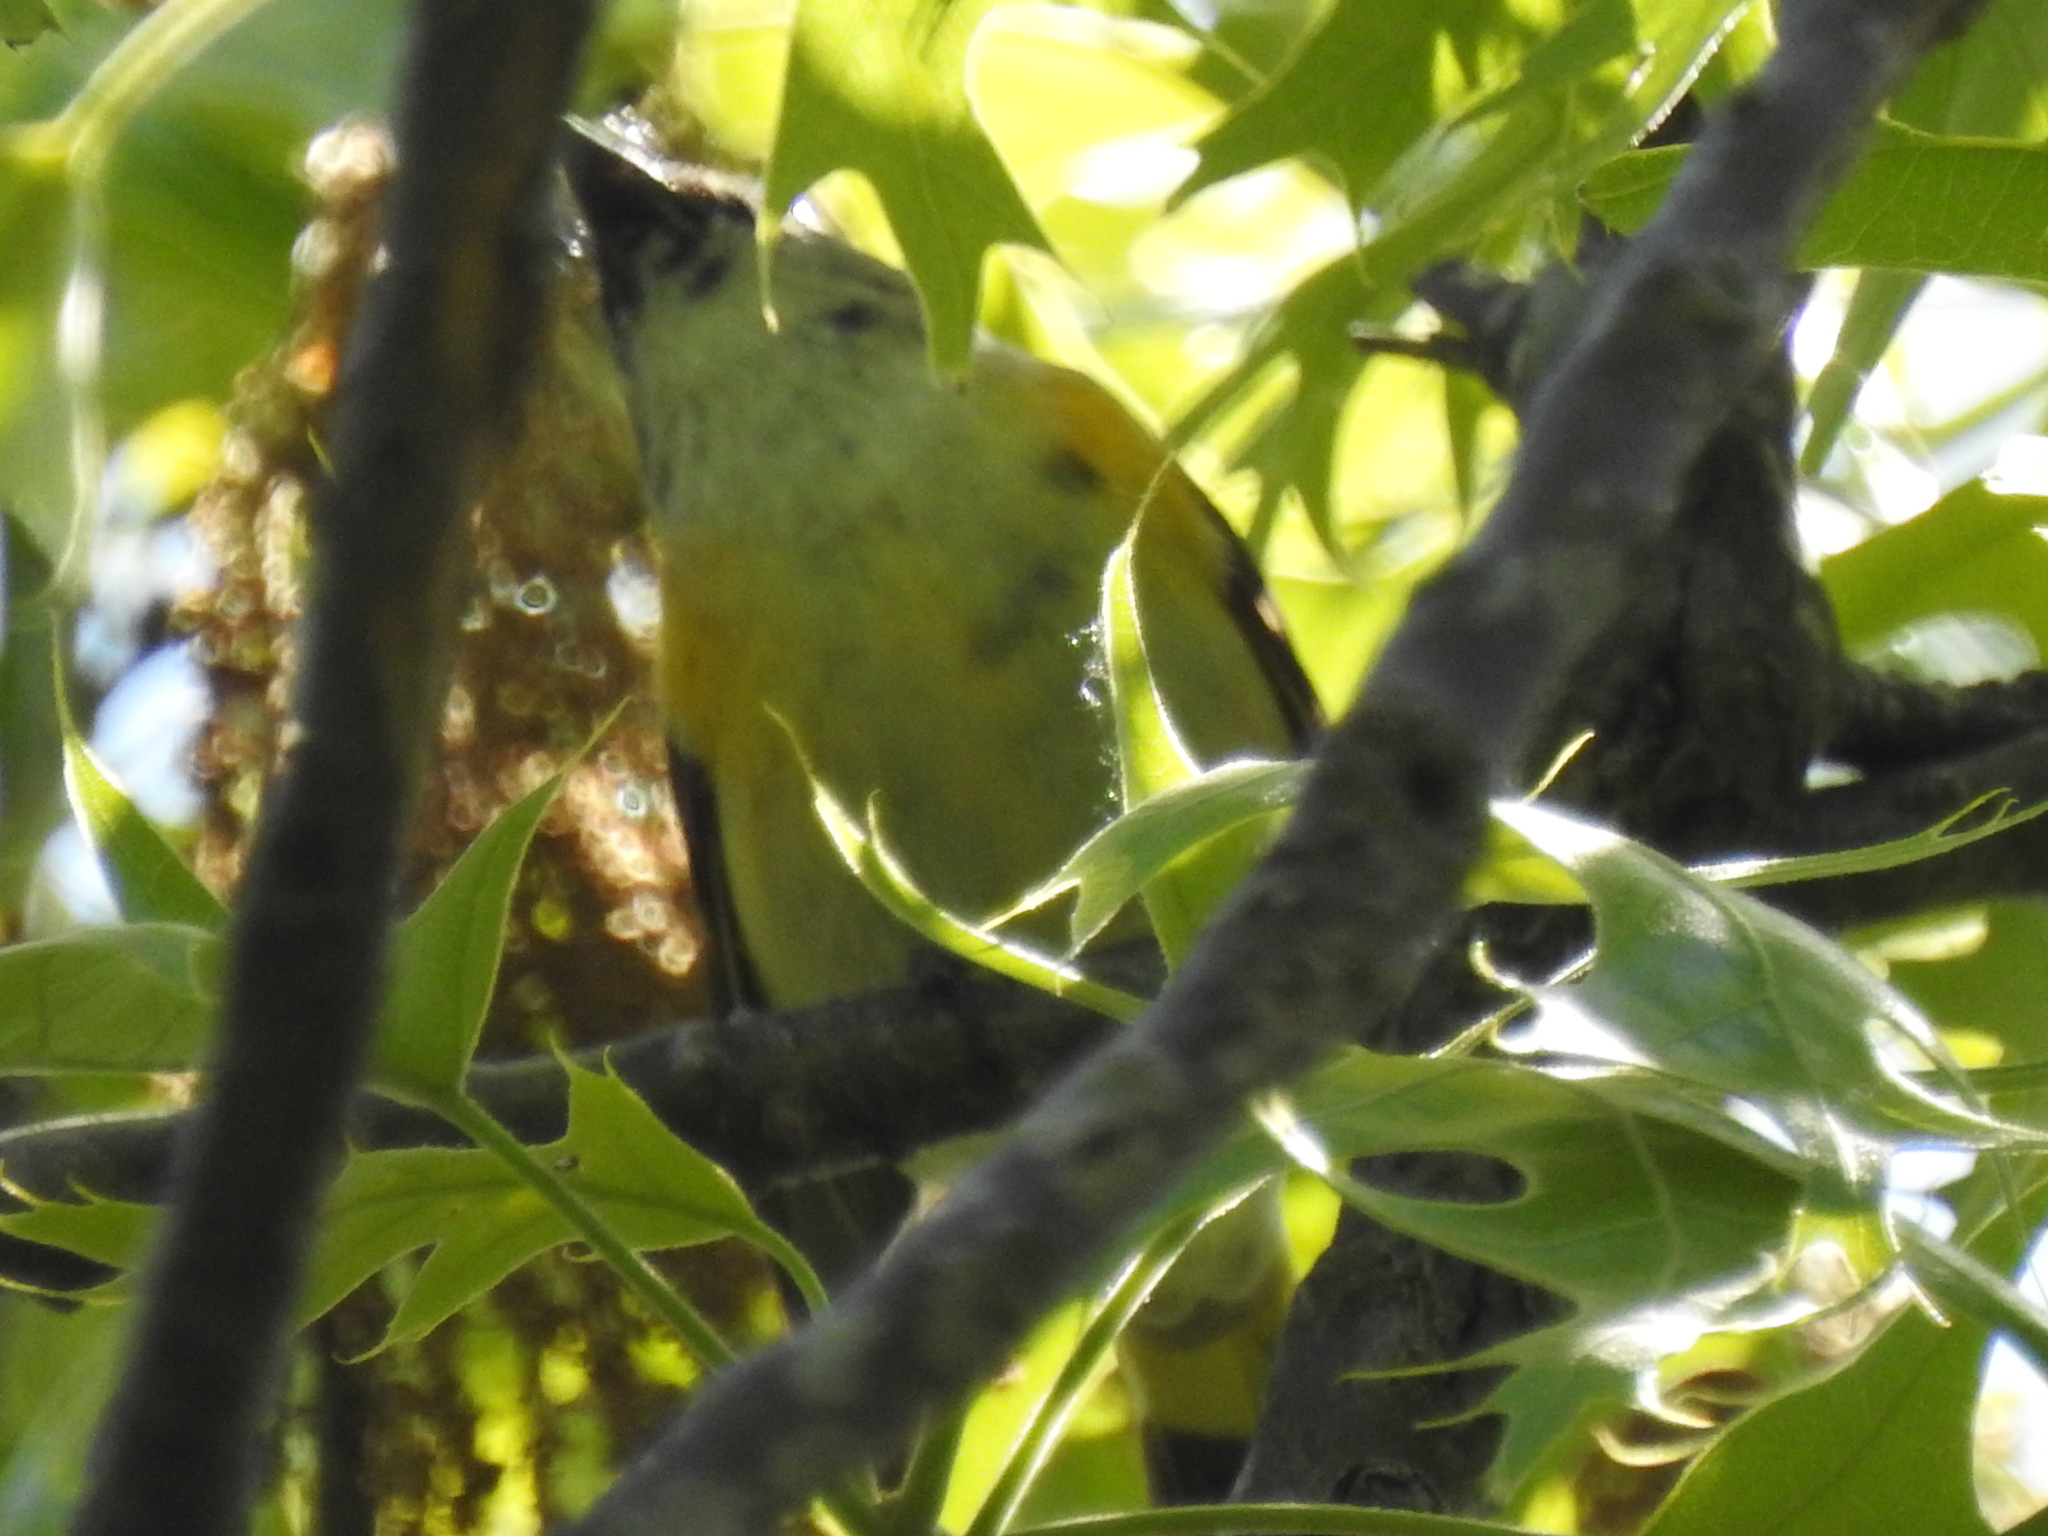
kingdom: Animalia
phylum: Chordata
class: Aves
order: Passeriformes
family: Parulidae
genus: Setophaga
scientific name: Setophaga ruticilla
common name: American redstart
